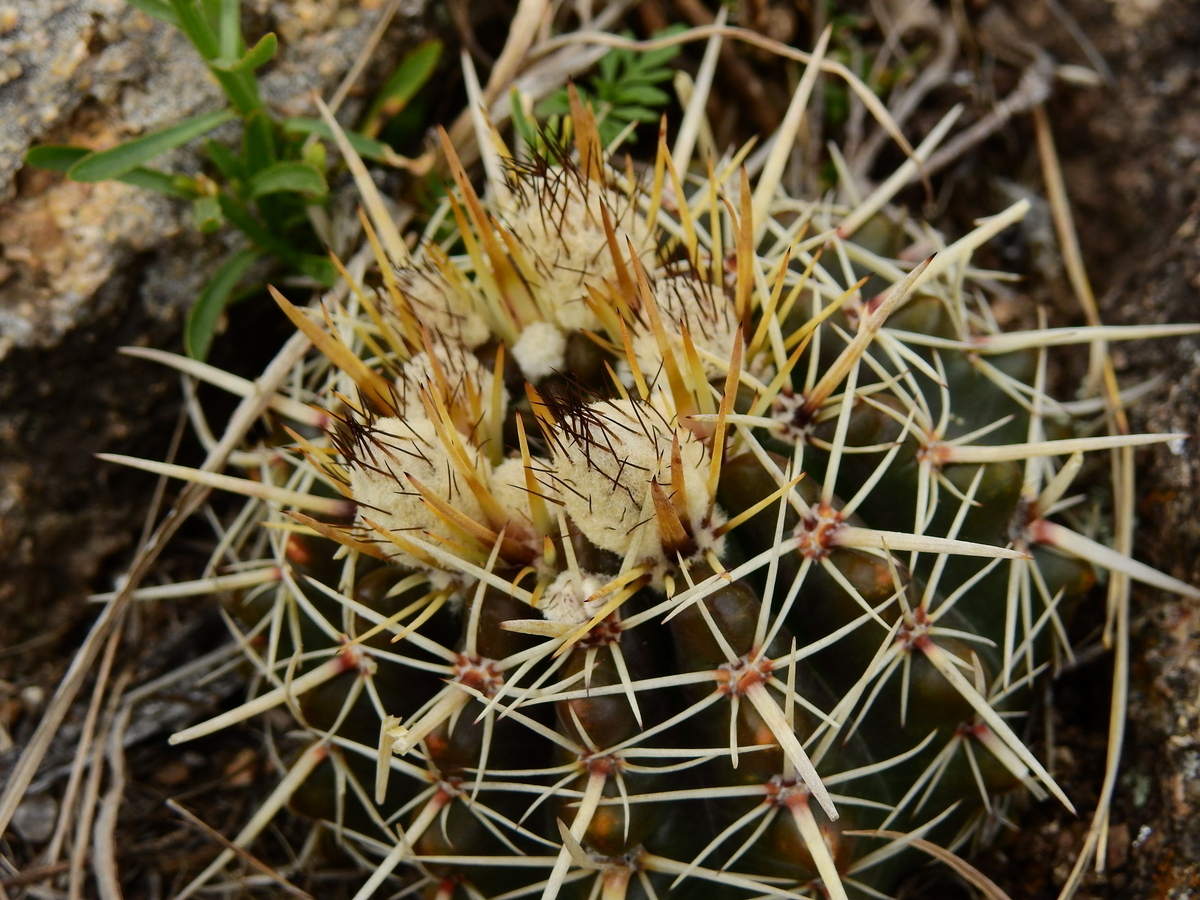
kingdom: Plantae
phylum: Tracheophyta
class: Magnoliopsida
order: Caryophyllales
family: Cactaceae
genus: Parodia
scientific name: Parodia mammulosa
